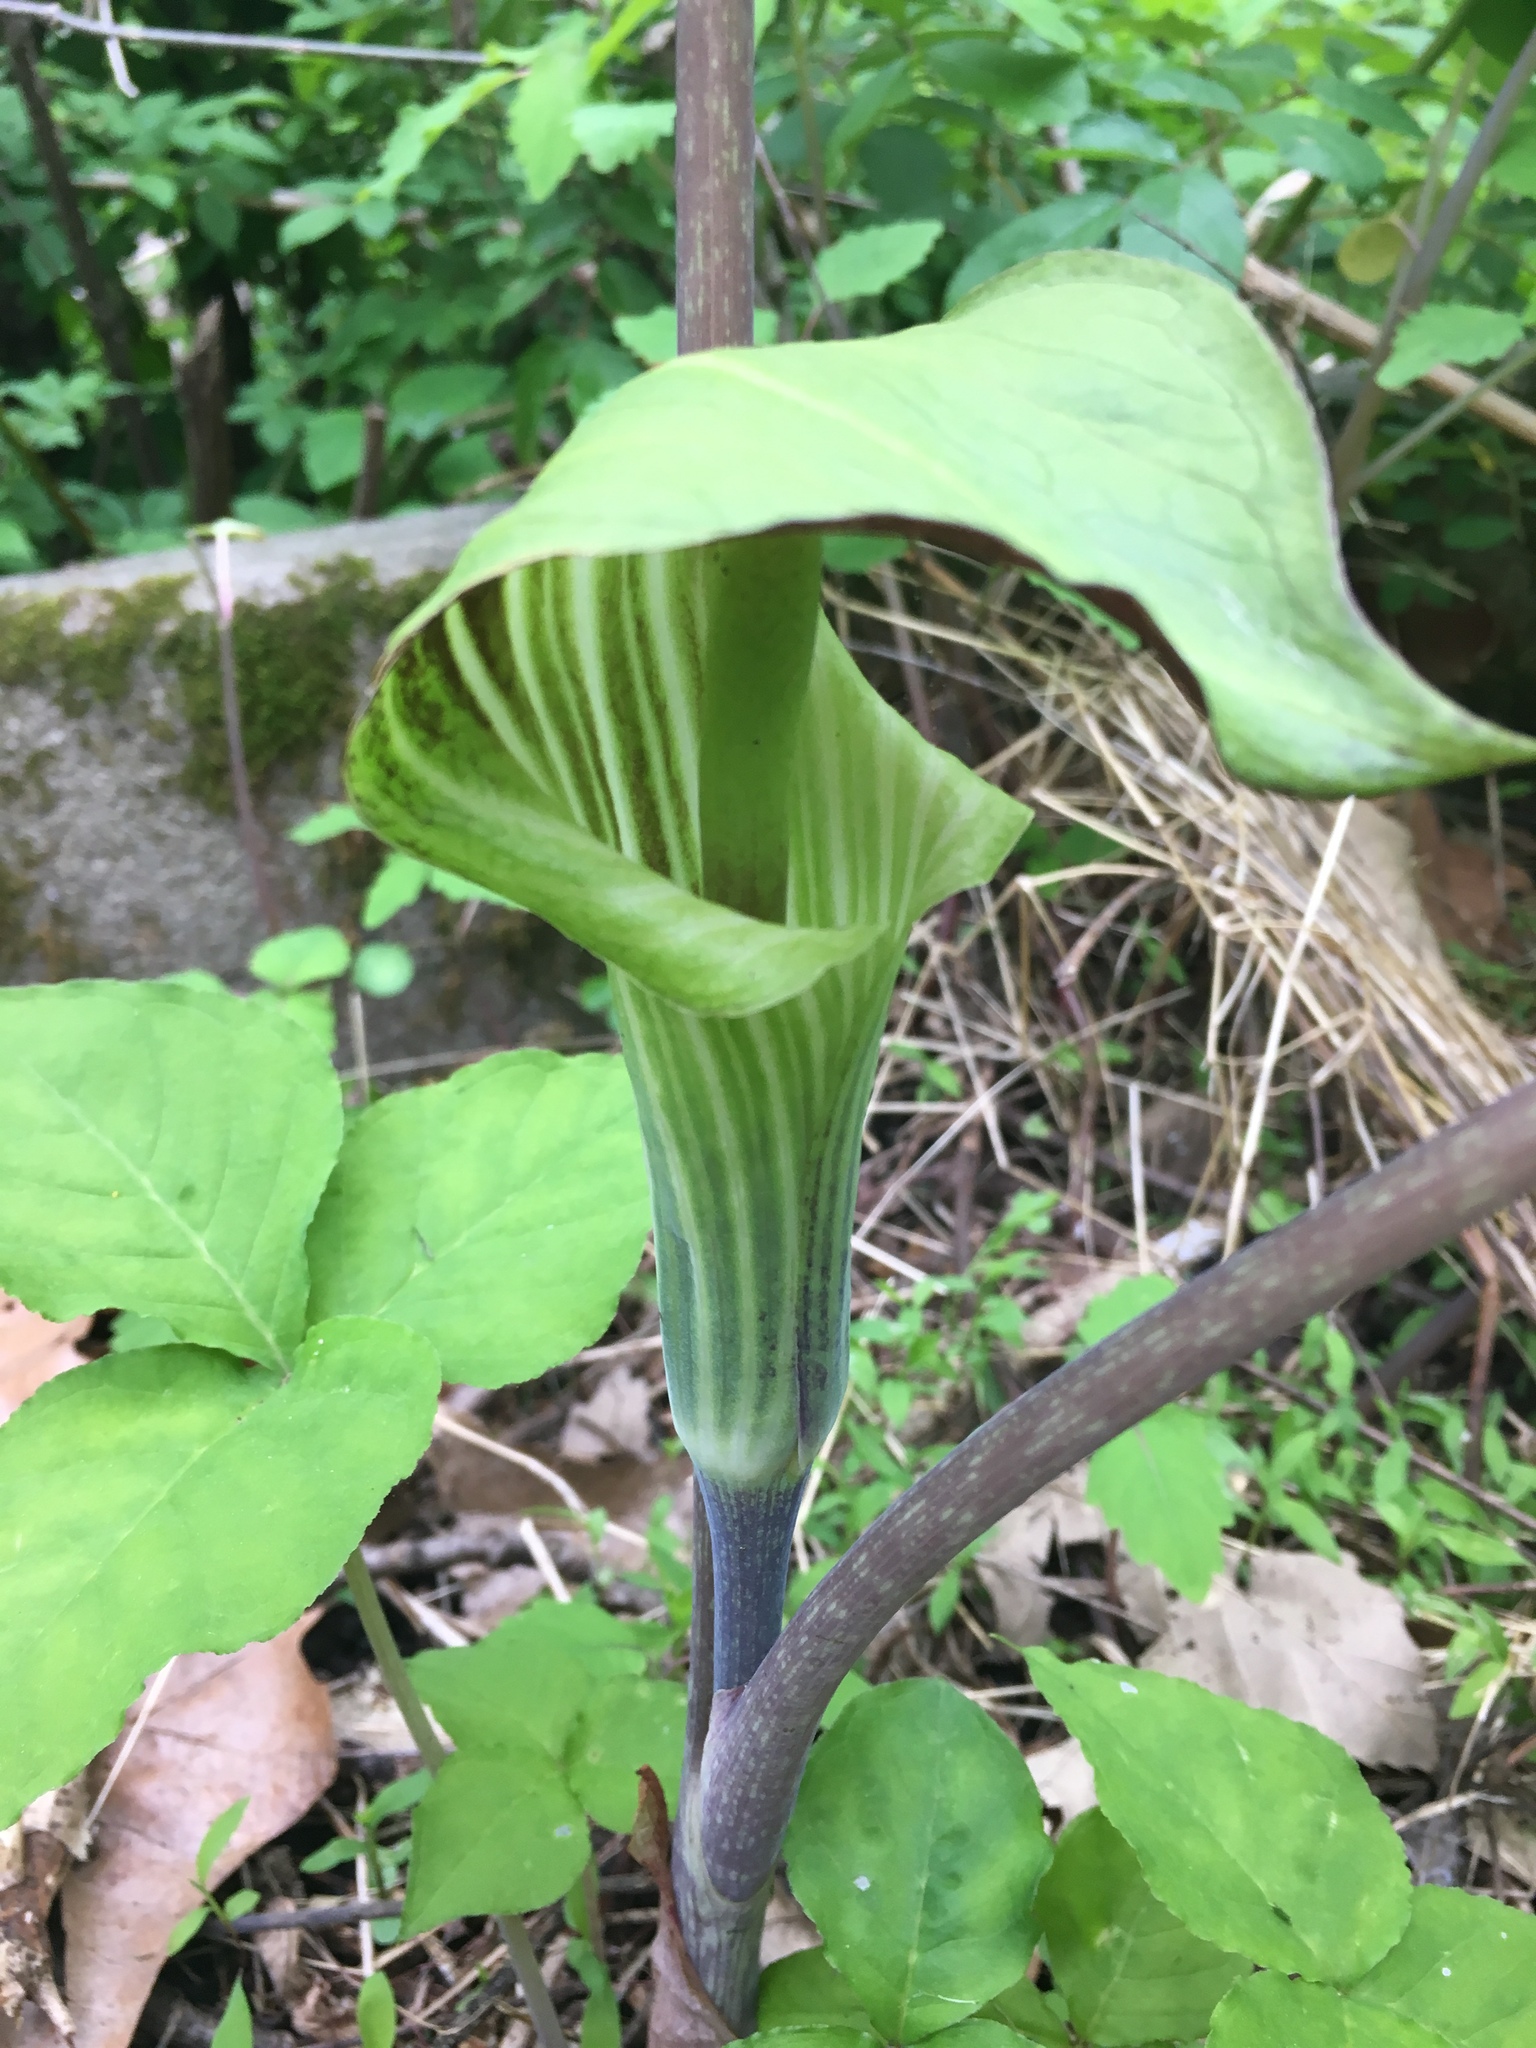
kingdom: Plantae
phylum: Tracheophyta
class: Liliopsida
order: Alismatales
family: Araceae
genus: Arisaema
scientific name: Arisaema triphyllum
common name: Jack-in-the-pulpit
